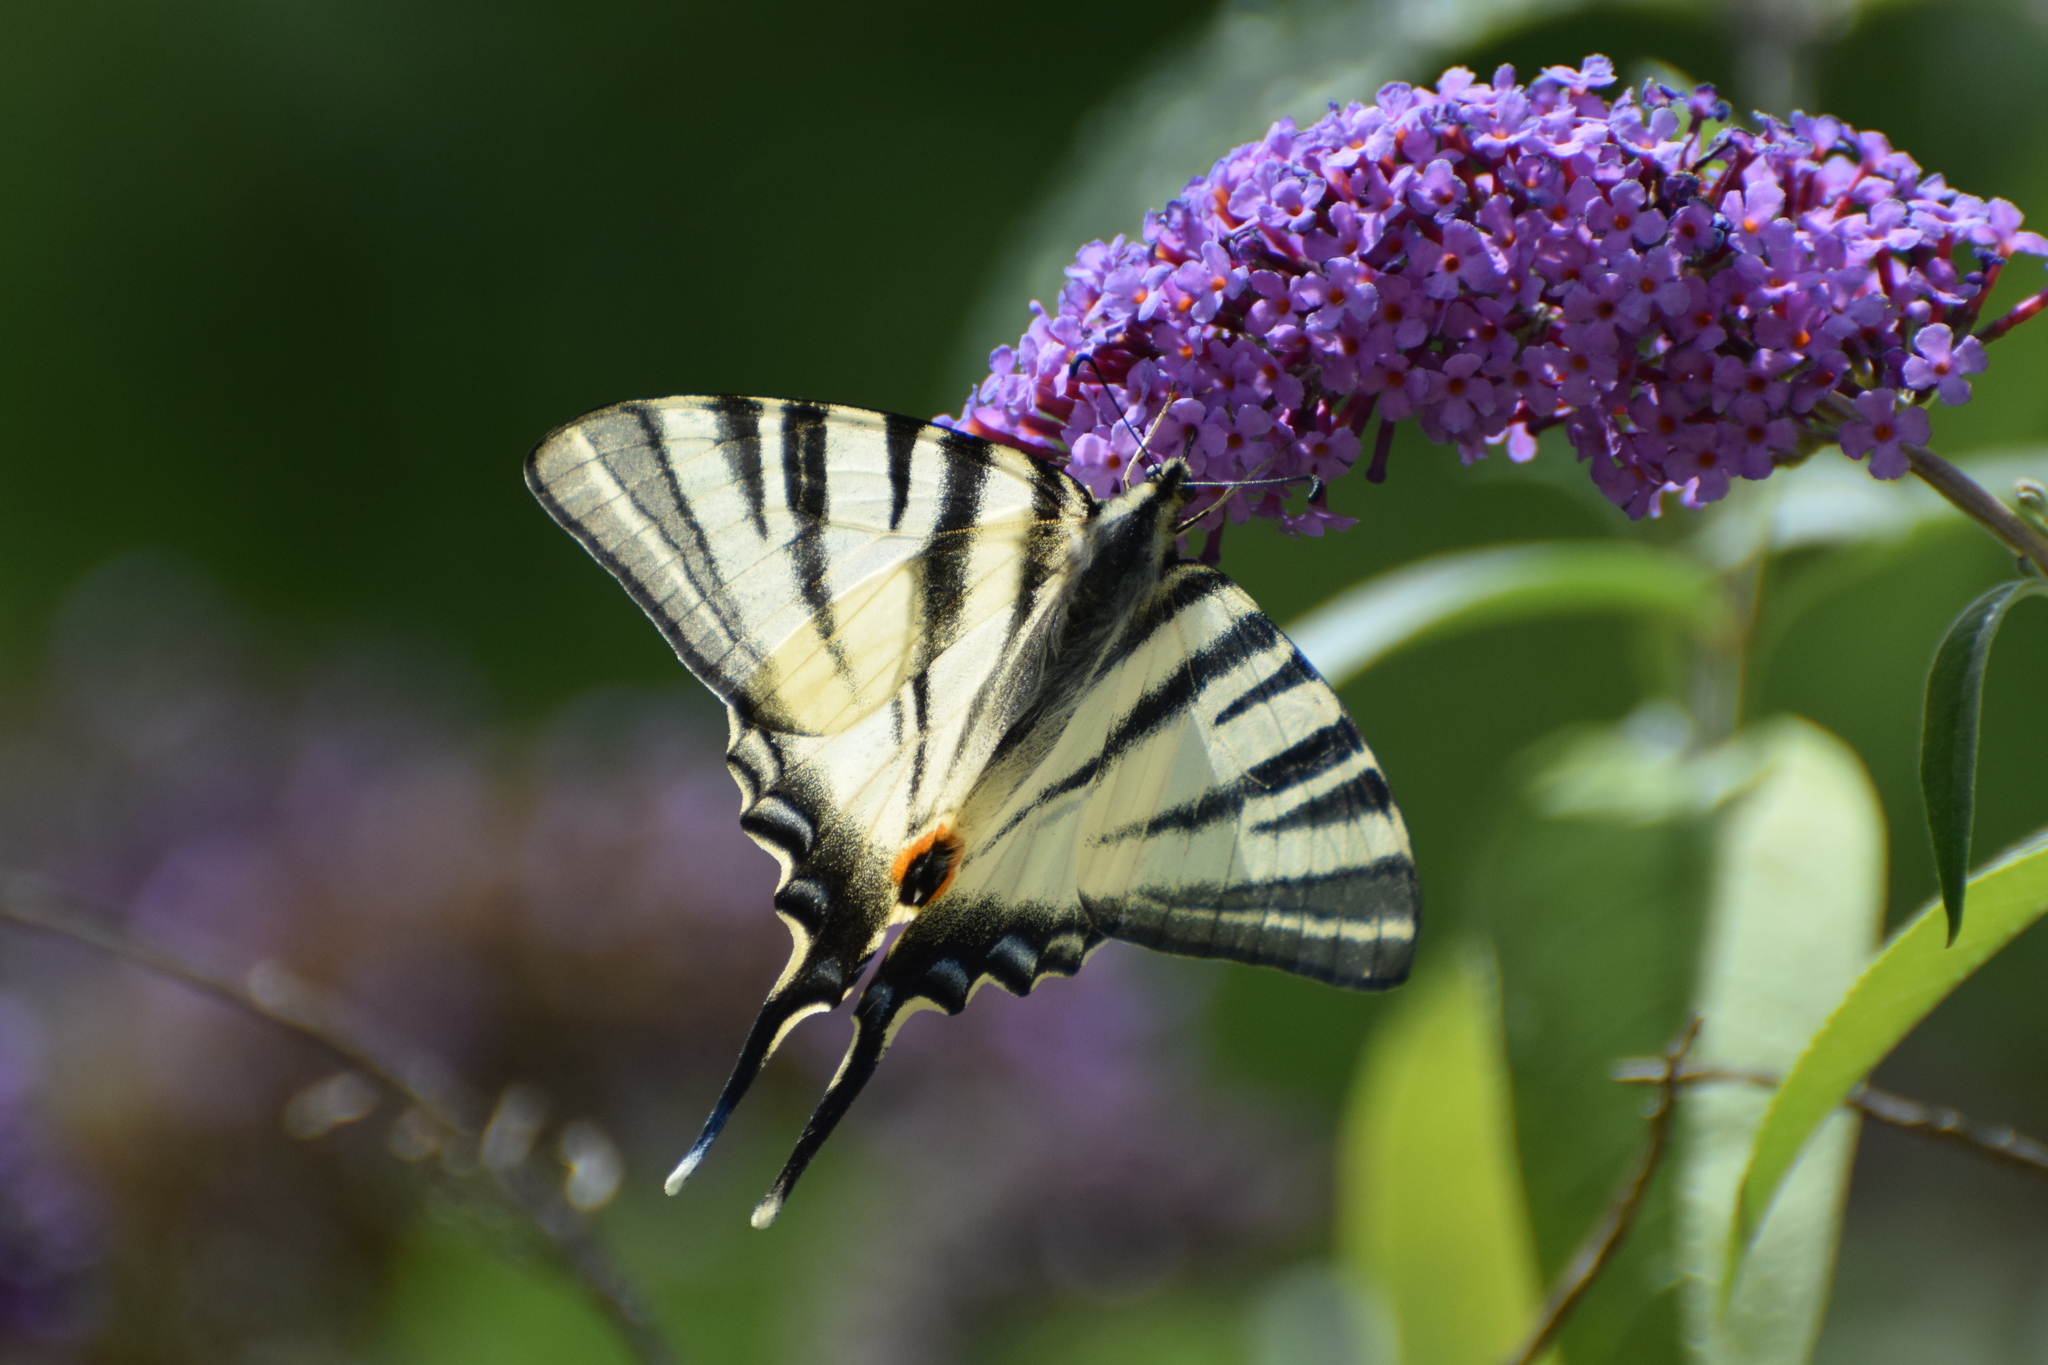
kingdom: Animalia
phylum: Arthropoda
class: Insecta
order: Lepidoptera
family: Papilionidae
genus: Iphiclides
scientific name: Iphiclides podalirius
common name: Scarce swallowtail
